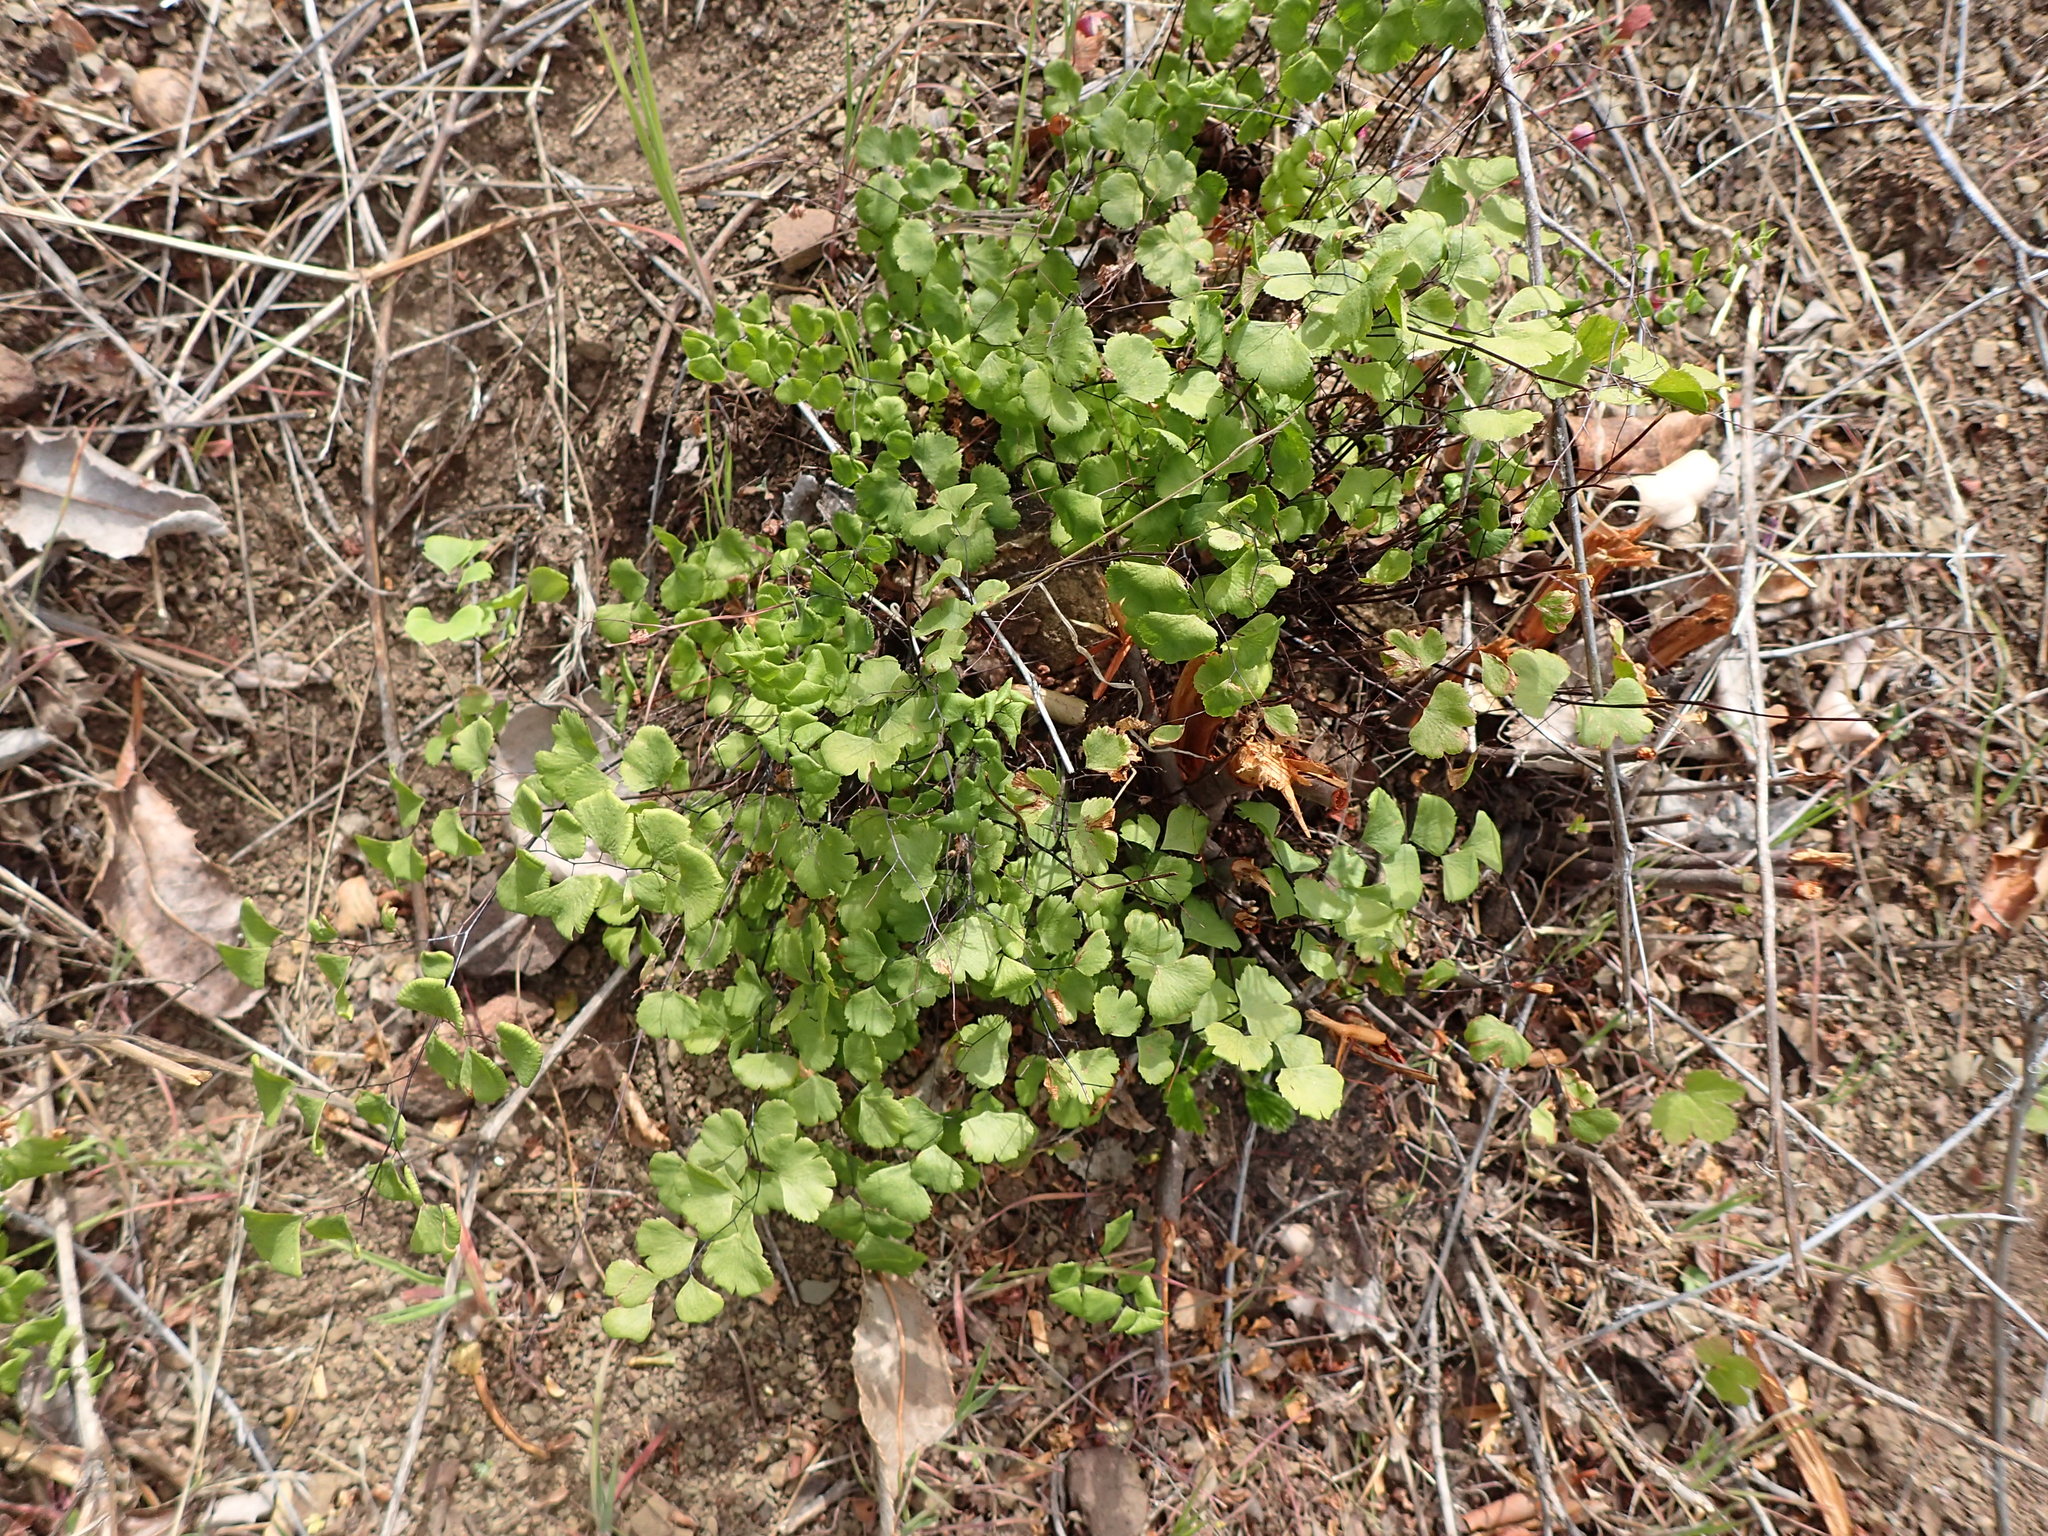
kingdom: Plantae
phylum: Tracheophyta
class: Polypodiopsida
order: Polypodiales
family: Pteridaceae
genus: Adiantum
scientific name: Adiantum jordanii
